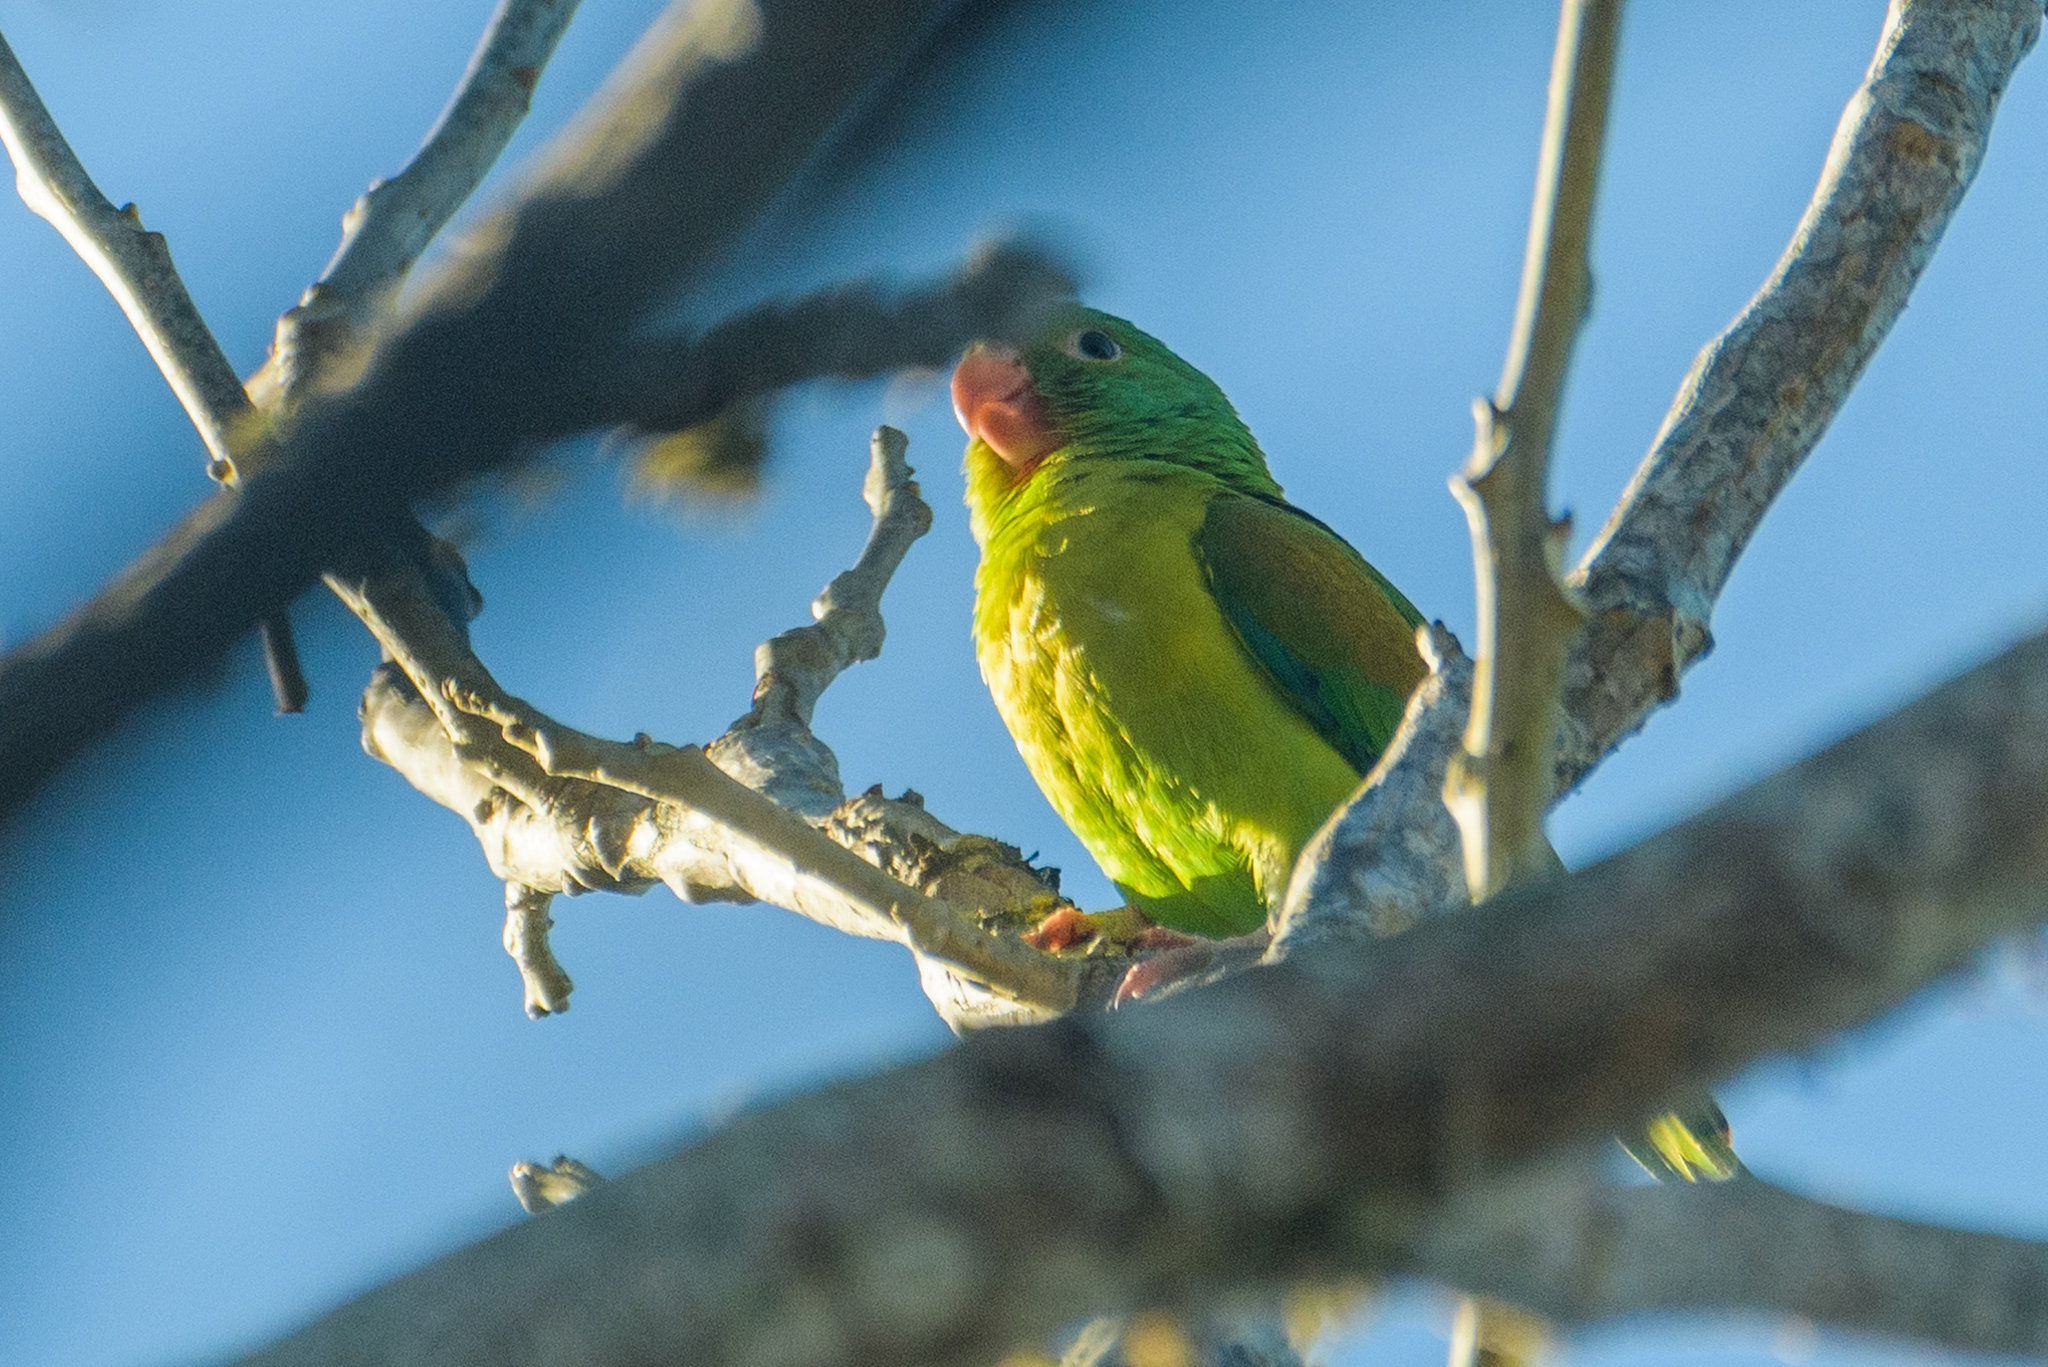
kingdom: Animalia
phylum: Chordata
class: Aves
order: Psittaciformes
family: Psittacidae
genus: Brotogeris
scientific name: Brotogeris jugularis
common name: Orange-chinned parakeet
